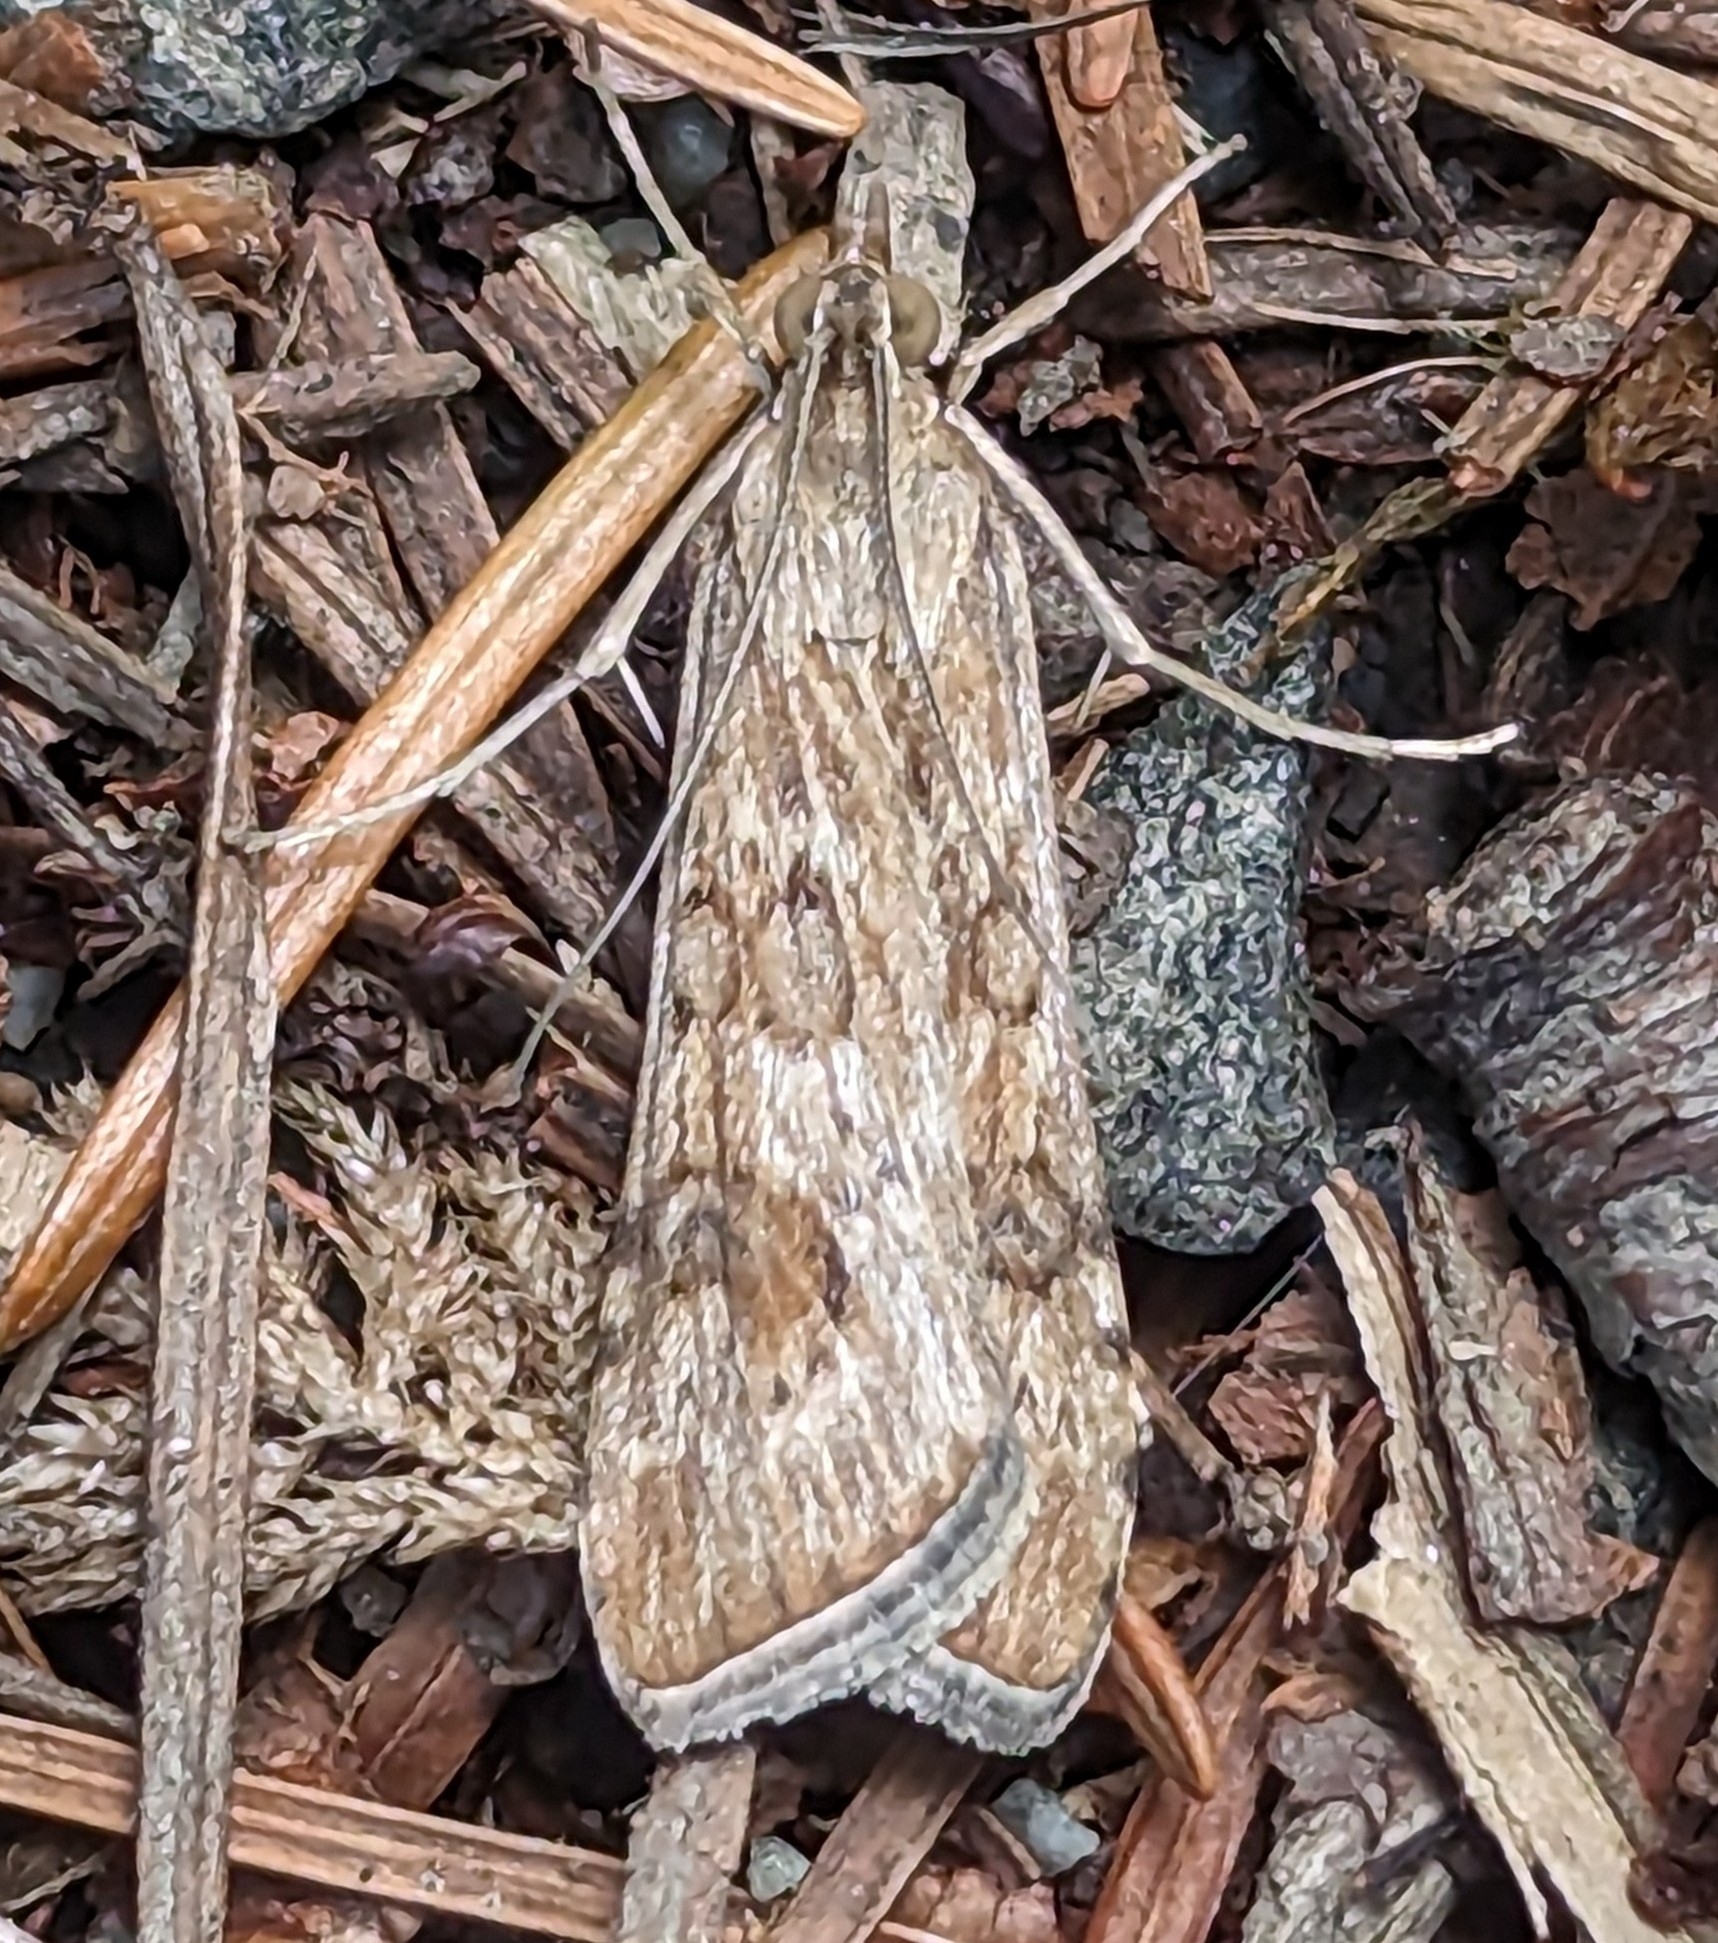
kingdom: Animalia
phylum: Arthropoda
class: Insecta
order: Lepidoptera
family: Crambidae
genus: Nomophila
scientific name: Nomophila nearctica
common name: American rush veneer
